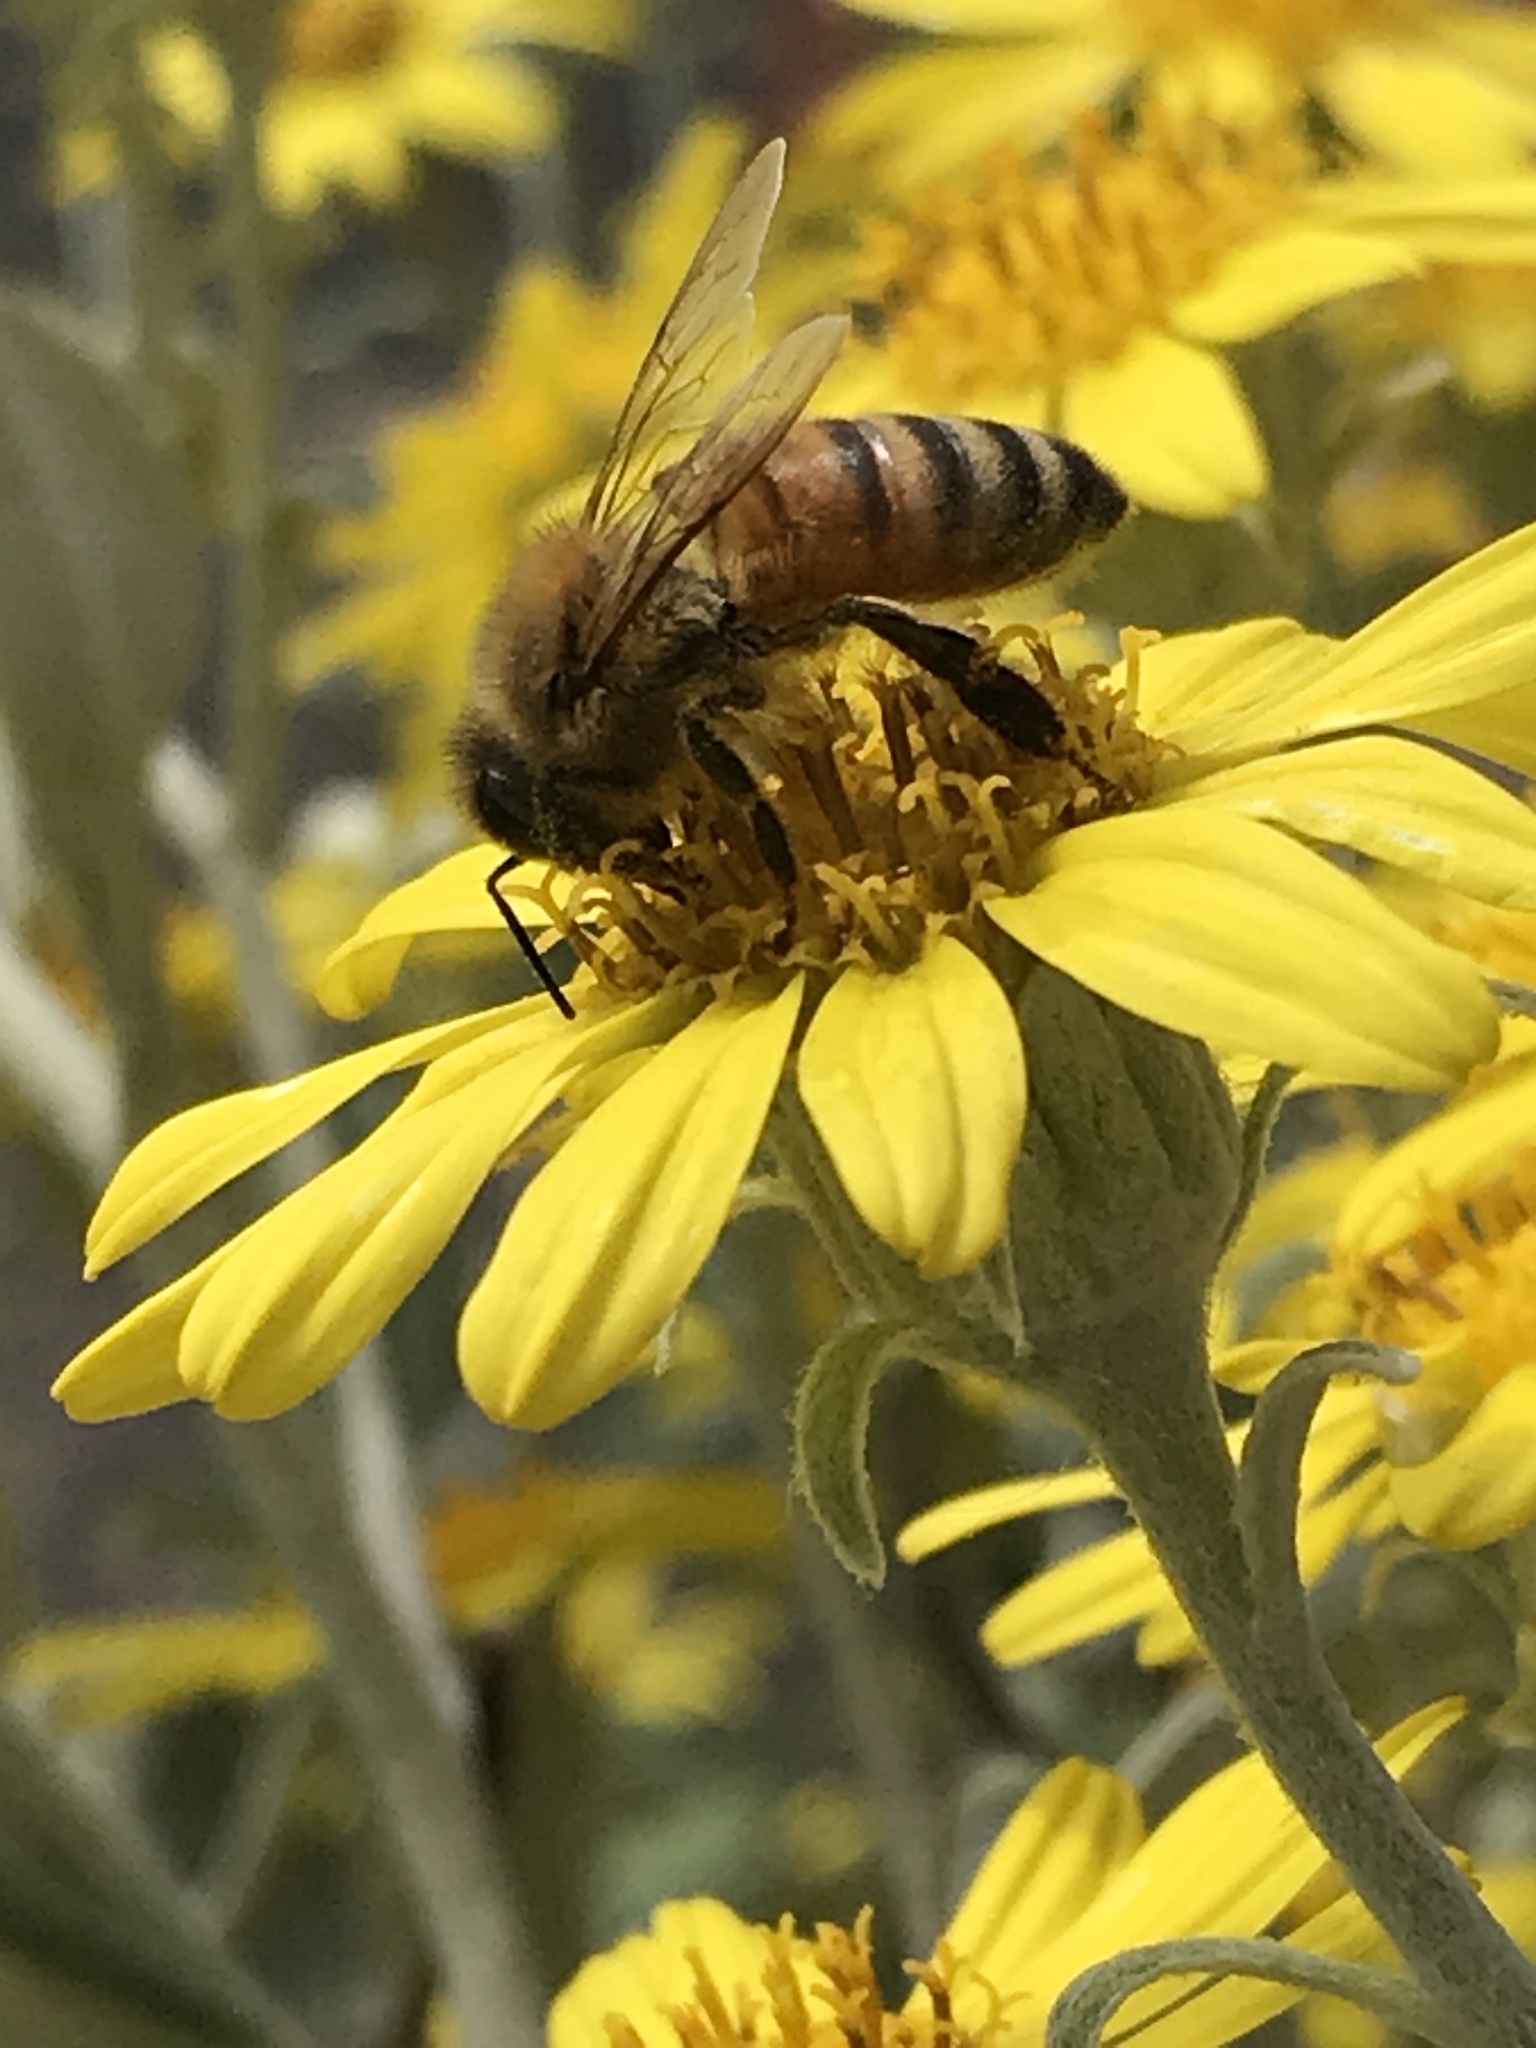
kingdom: Animalia
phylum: Arthropoda
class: Insecta
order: Hymenoptera
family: Apidae
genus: Apis
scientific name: Apis mellifera
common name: Honey bee
